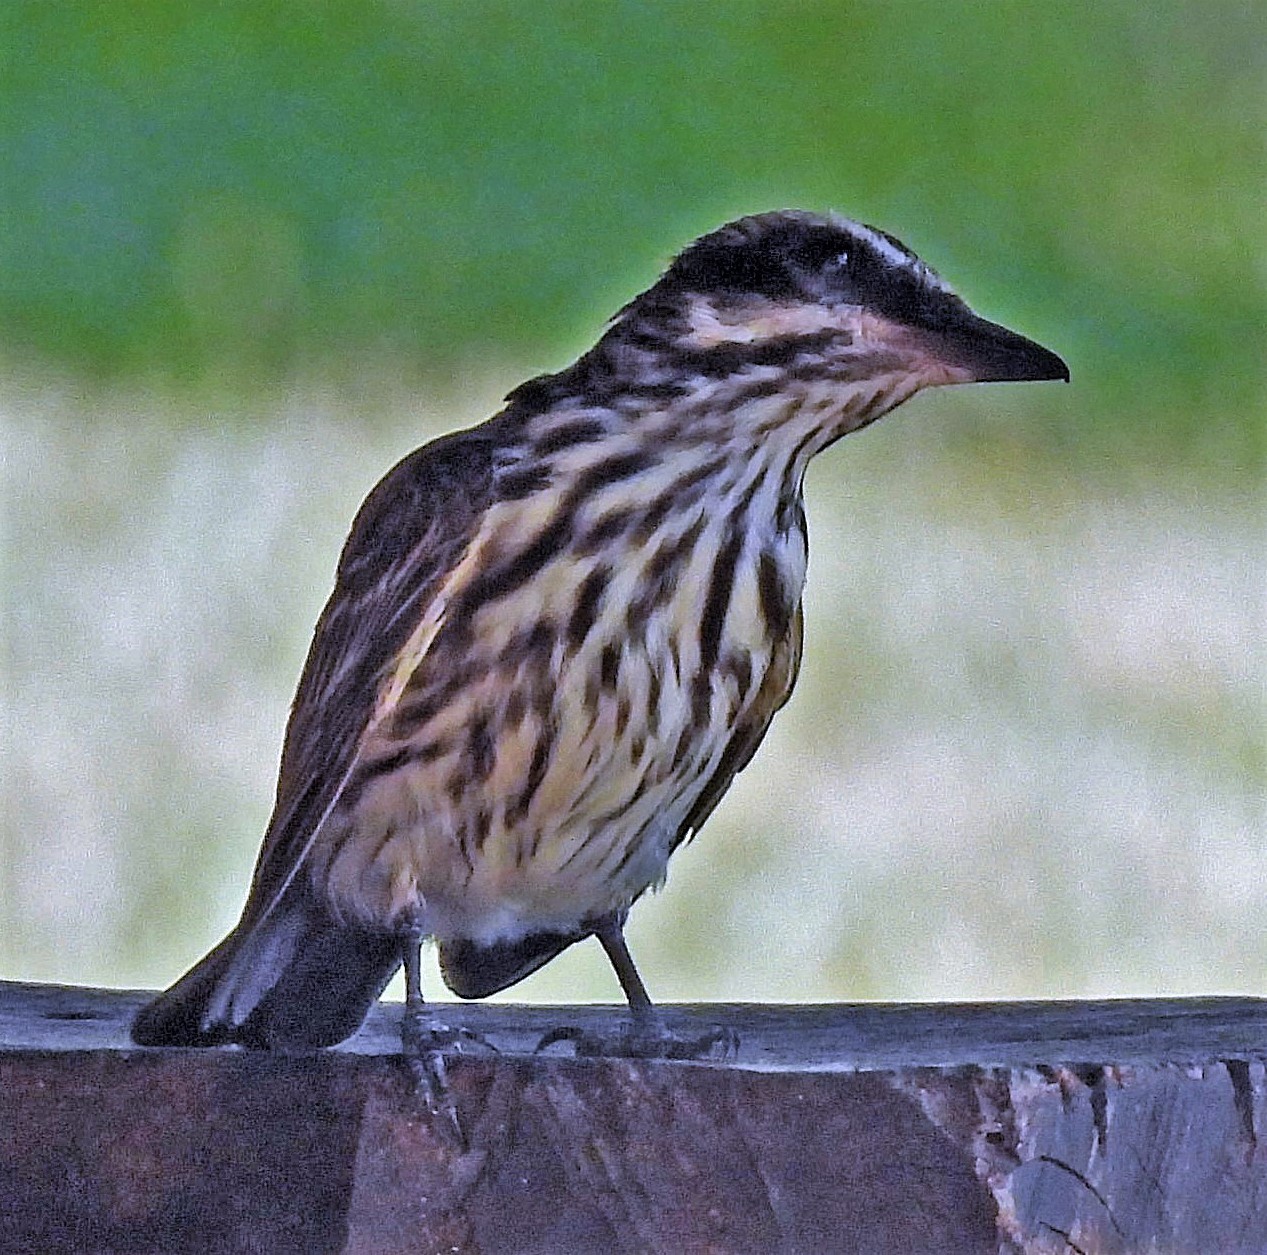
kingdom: Animalia
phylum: Chordata
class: Aves
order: Passeriformes
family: Tyrannidae
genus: Myiodynastes
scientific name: Myiodynastes maculatus
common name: Streaked flycatcher
